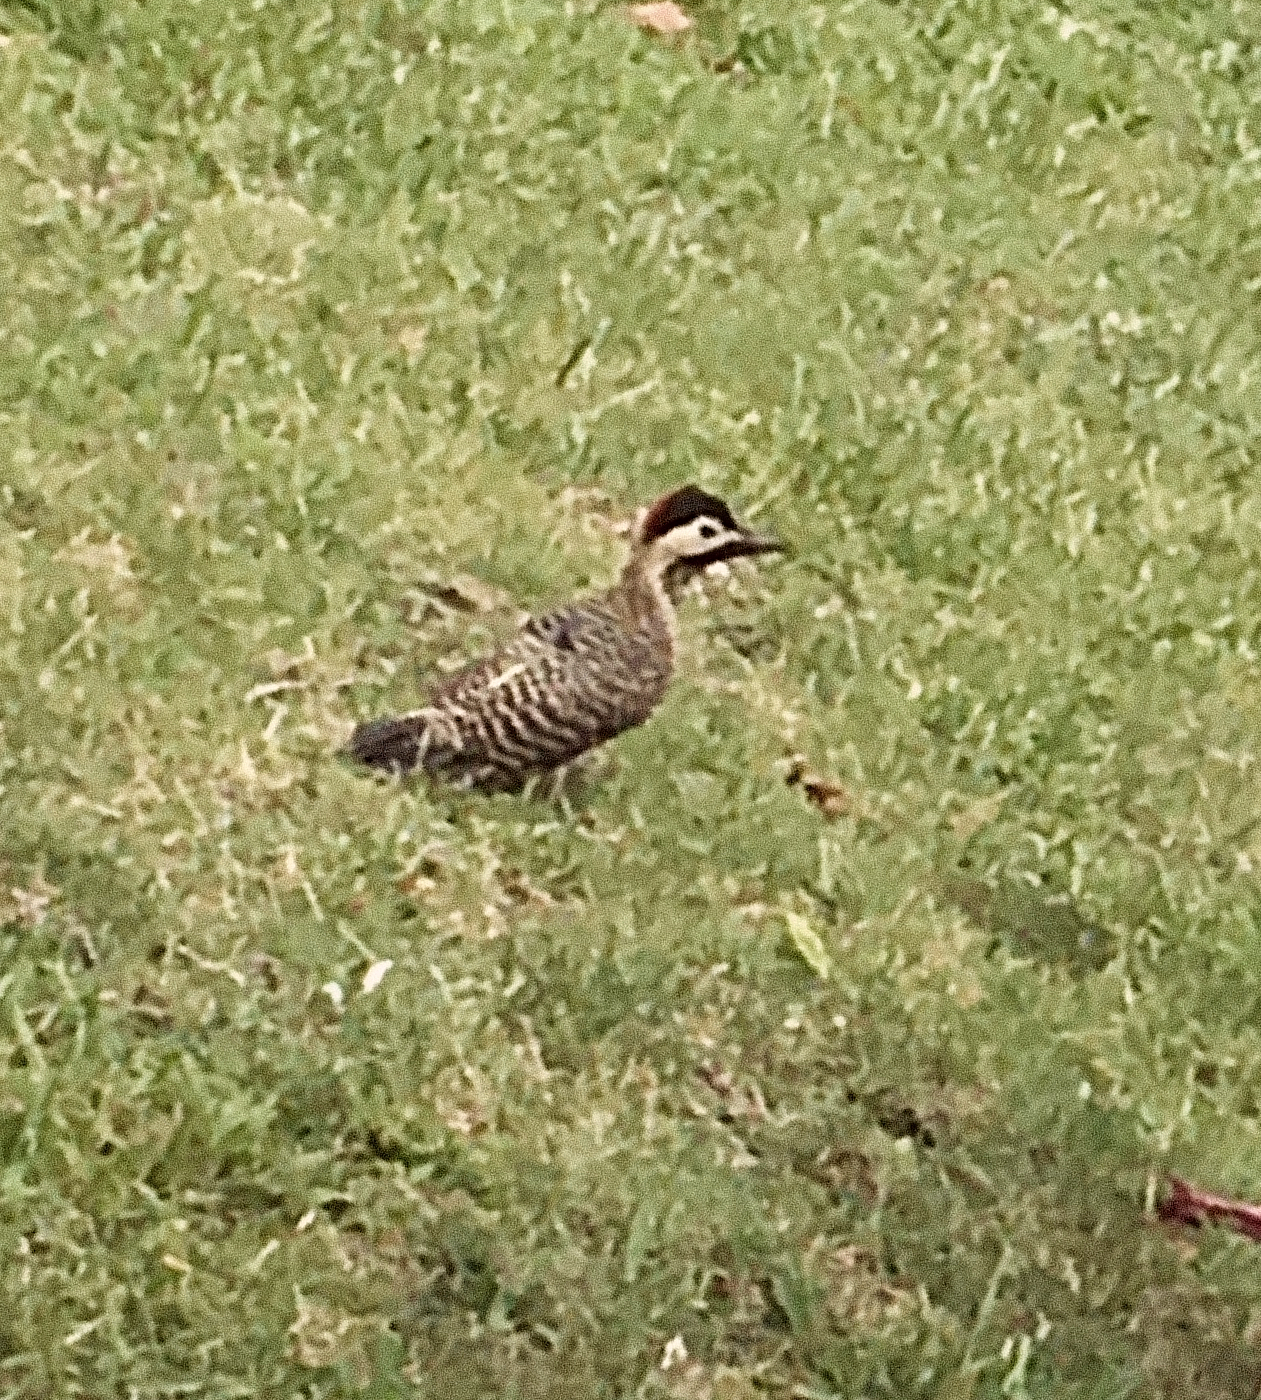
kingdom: Animalia
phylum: Chordata
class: Aves
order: Piciformes
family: Picidae
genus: Colaptes
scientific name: Colaptes melanochloros
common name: Green-barred woodpecker
